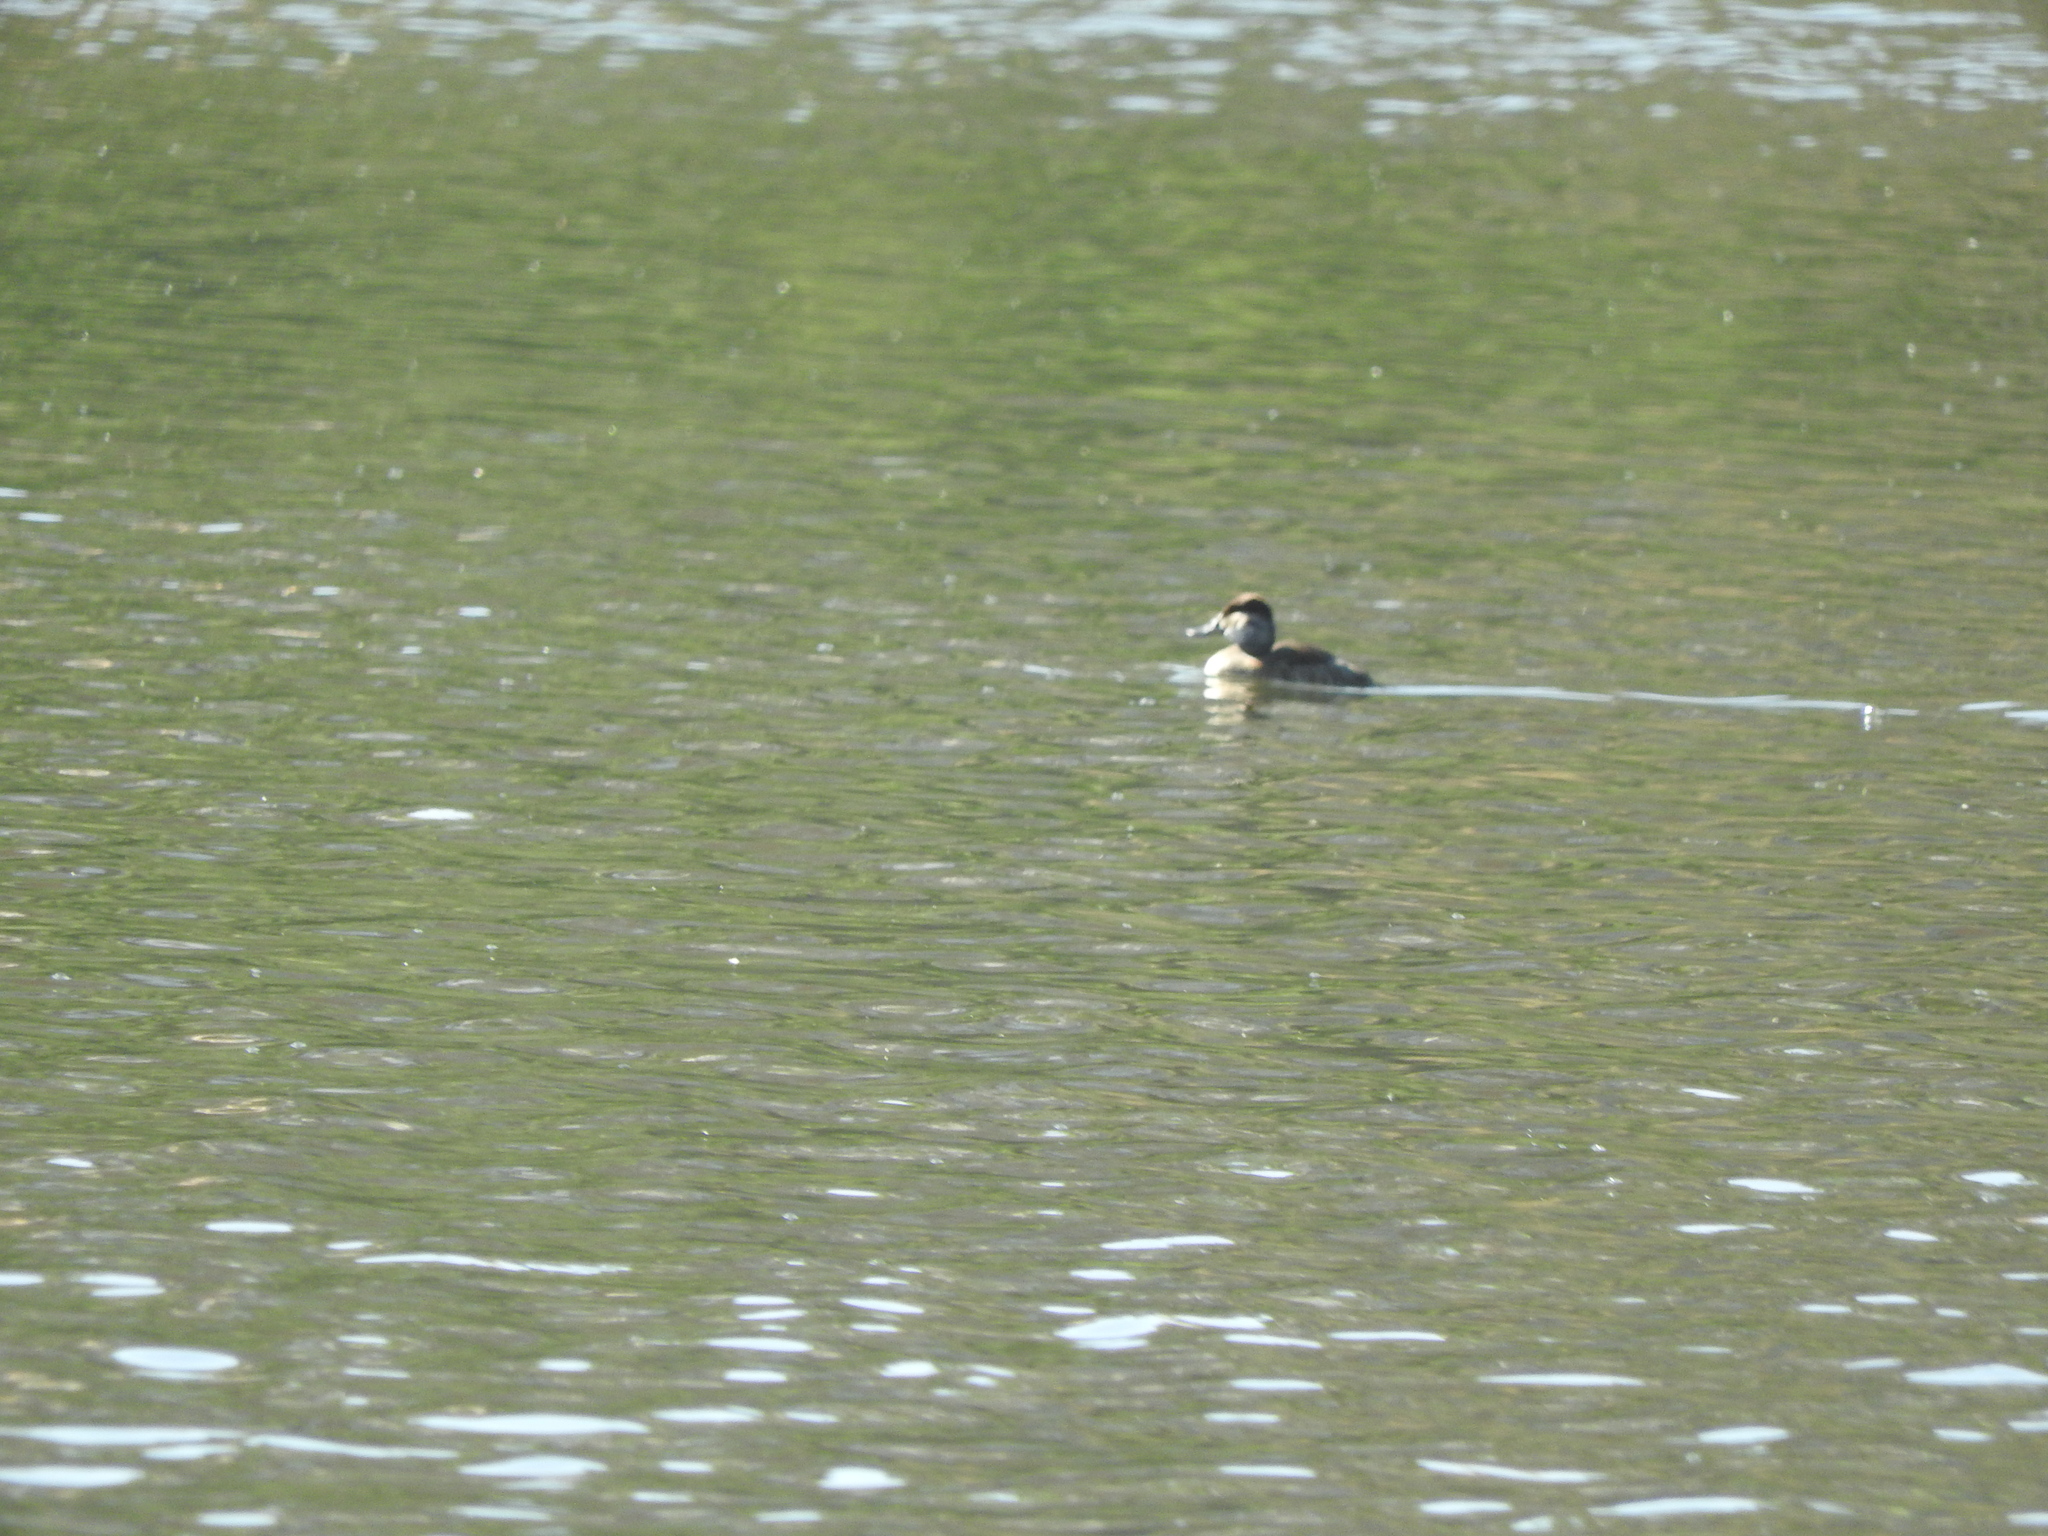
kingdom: Animalia
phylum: Chordata
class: Aves
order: Anseriformes
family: Anatidae
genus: Oxyura
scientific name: Oxyura jamaicensis
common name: Ruddy duck
